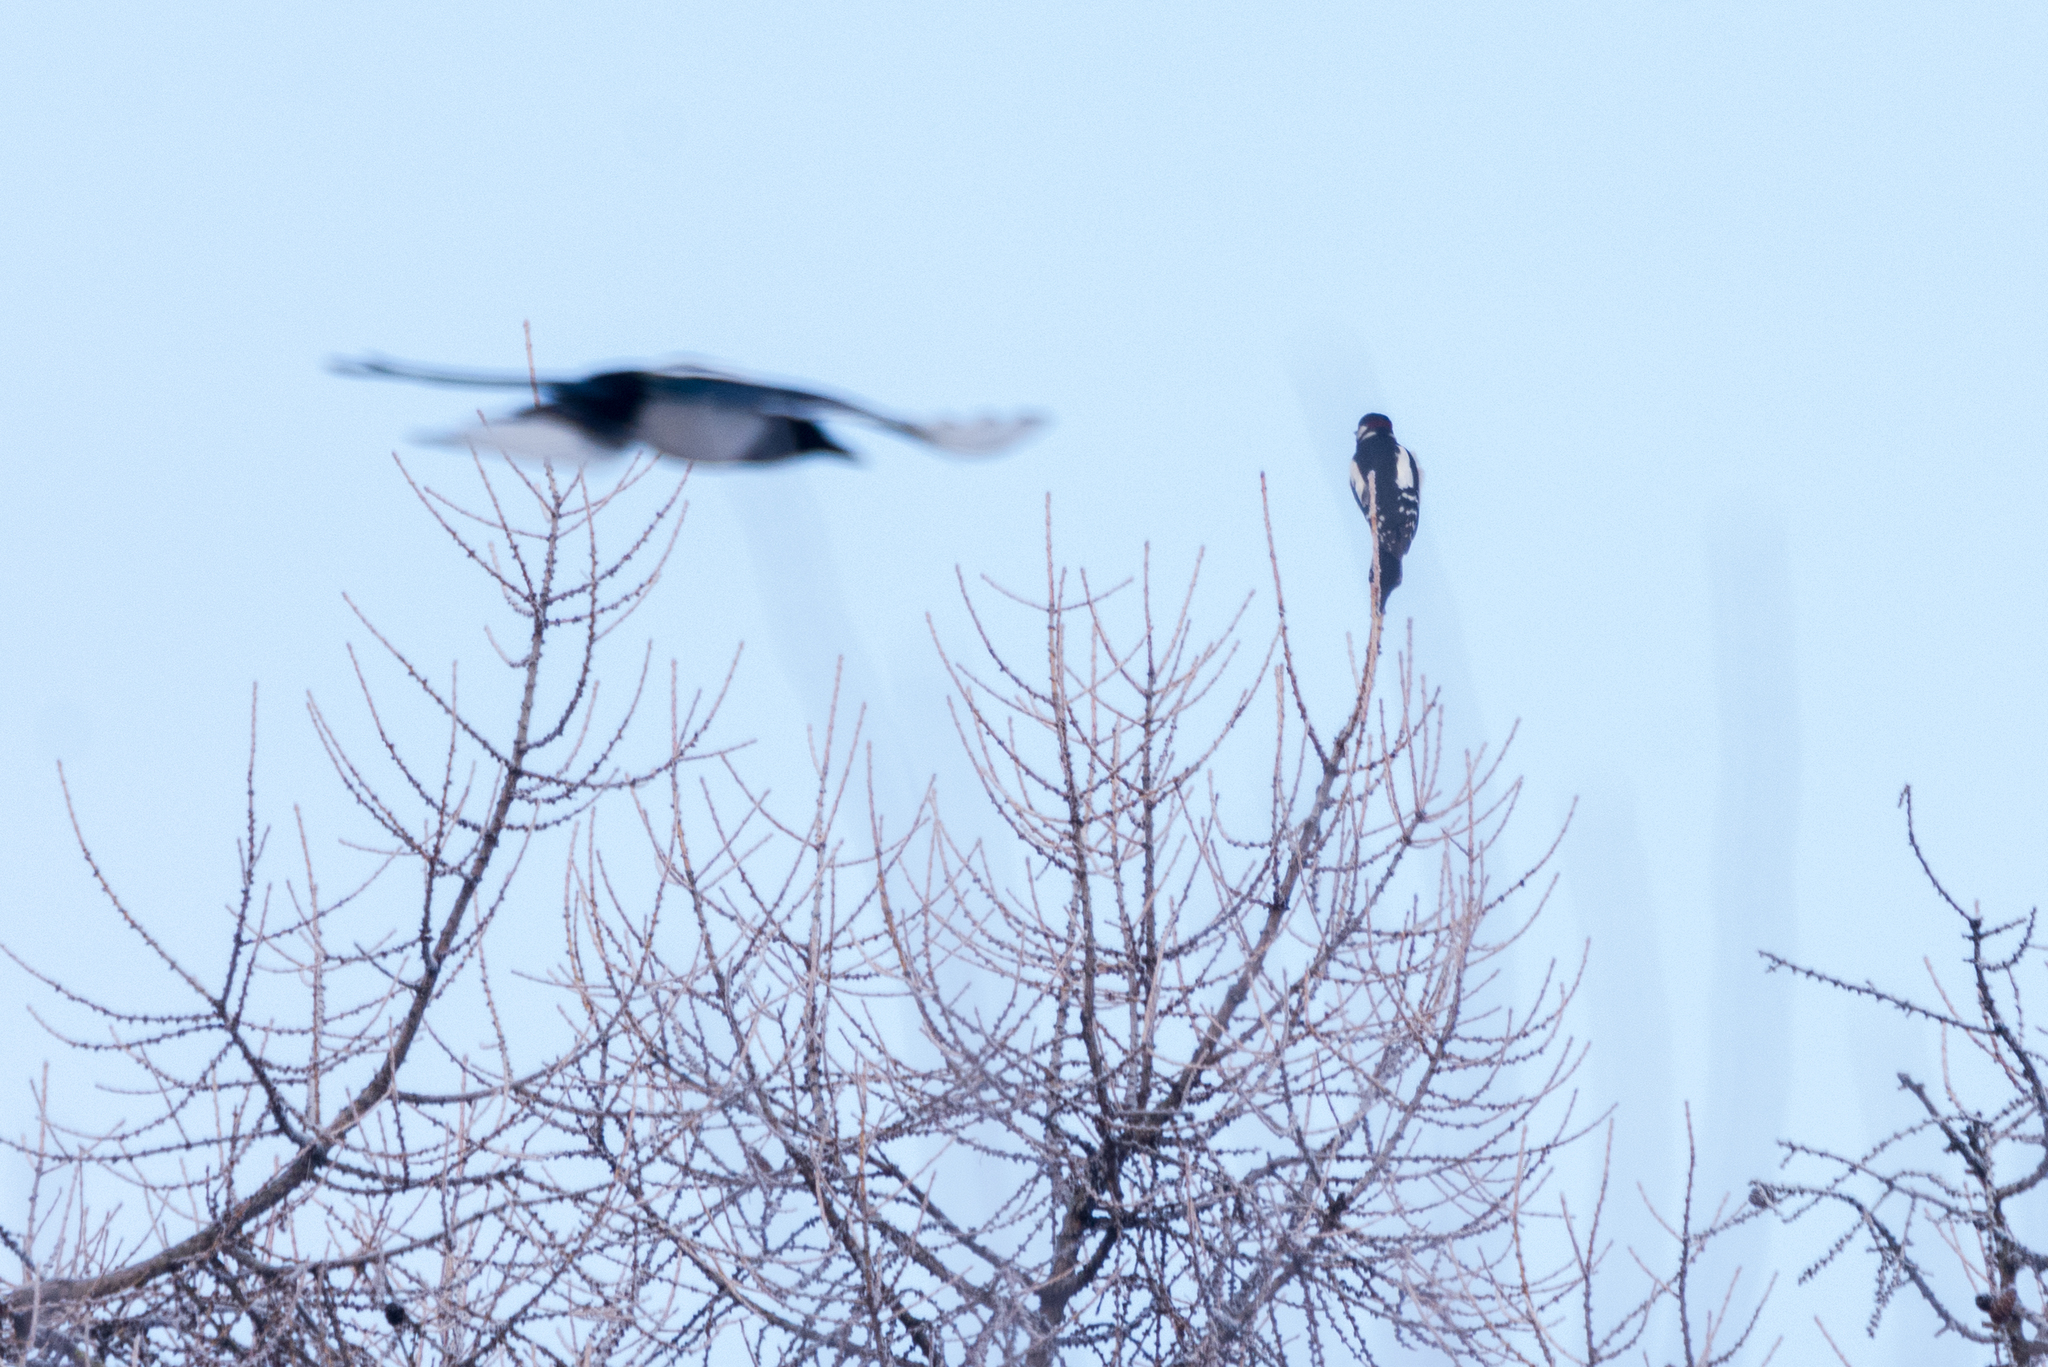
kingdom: Animalia
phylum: Chordata
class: Aves
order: Piciformes
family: Picidae
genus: Dendrocopos
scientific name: Dendrocopos major
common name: Great spotted woodpecker
